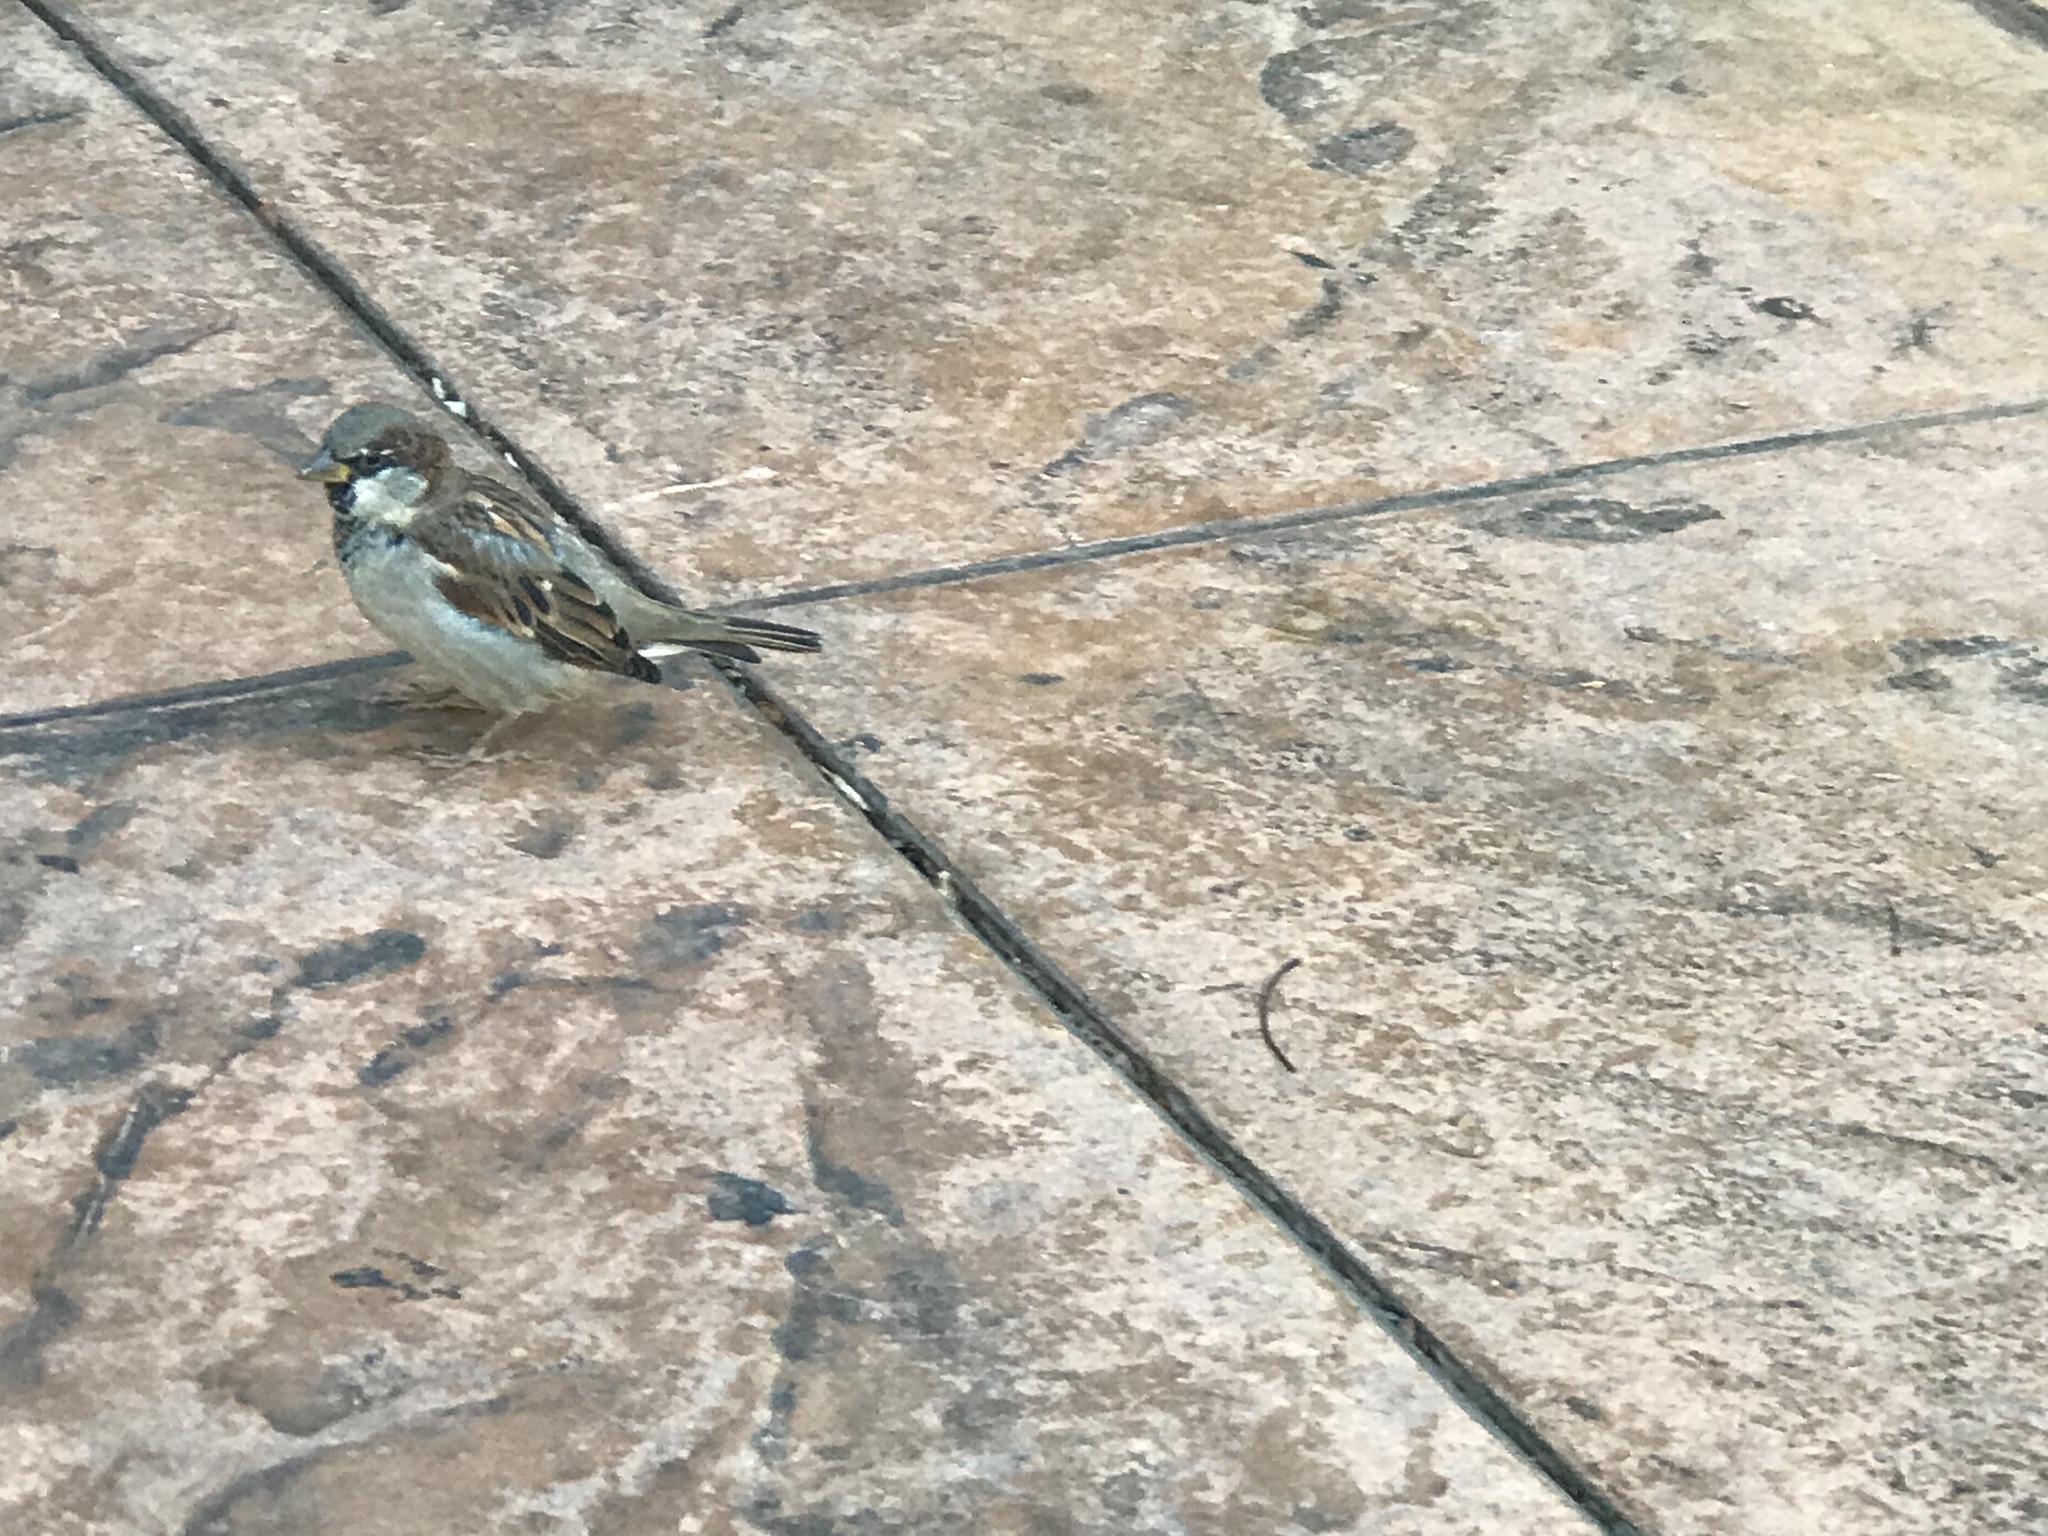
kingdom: Animalia
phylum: Chordata
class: Aves
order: Passeriformes
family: Passeridae
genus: Passer
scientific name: Passer domesticus
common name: House sparrow
